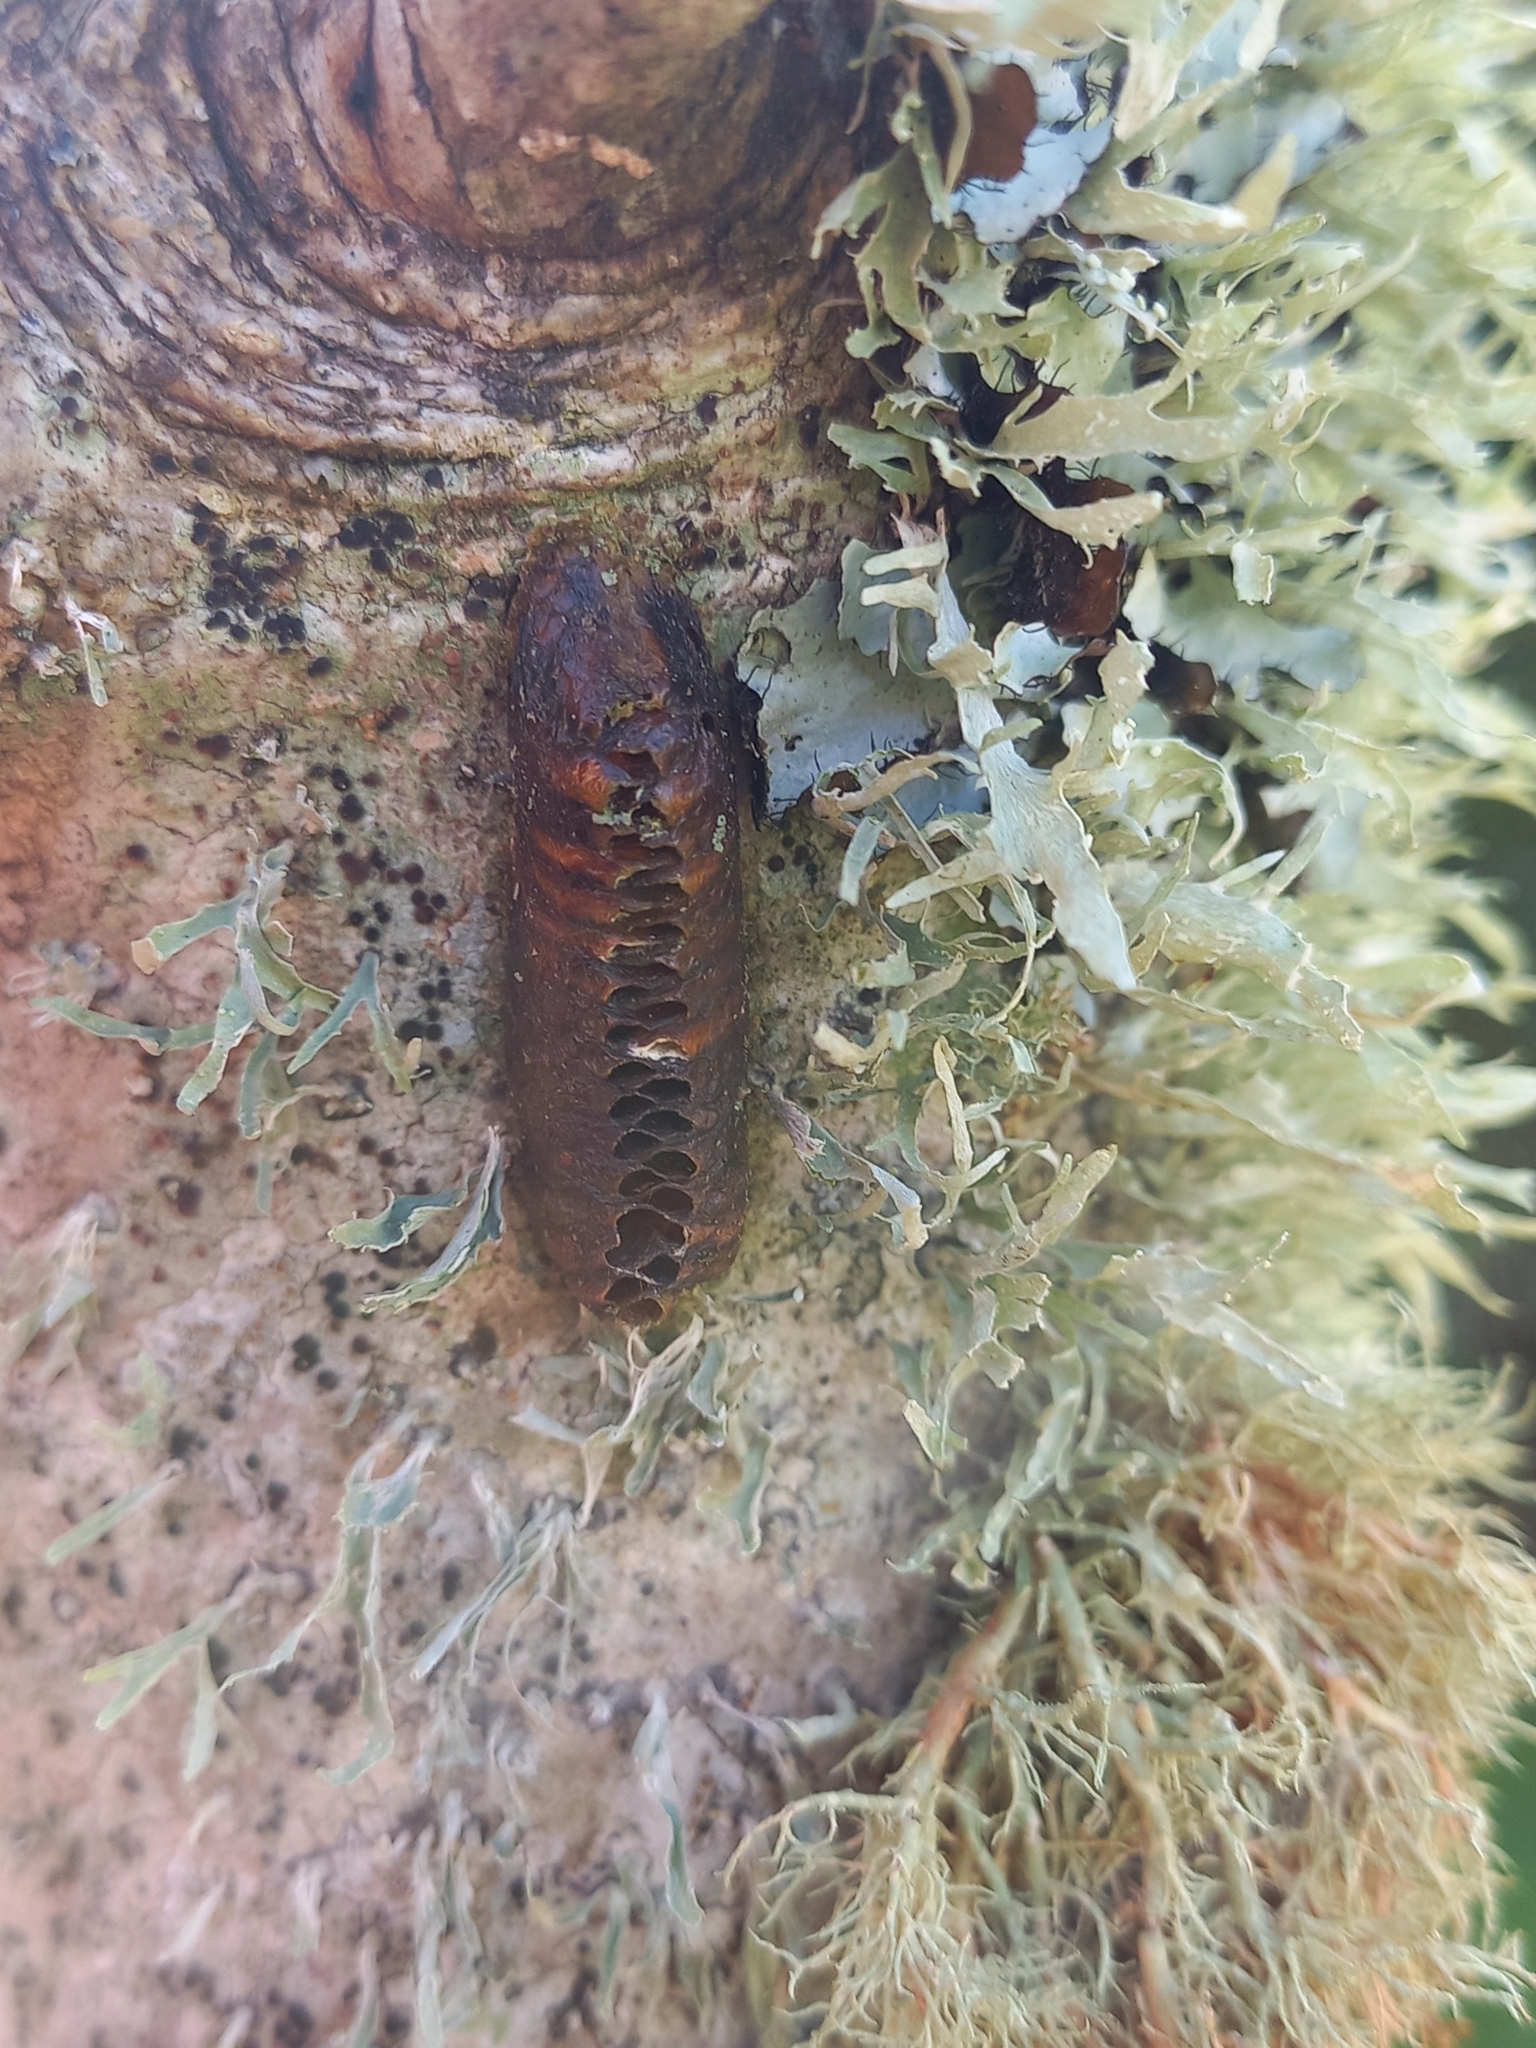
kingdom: Animalia
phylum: Arthropoda
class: Insecta
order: Mantodea
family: Mantidae
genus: Orthodera
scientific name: Orthodera novaezealandiae
